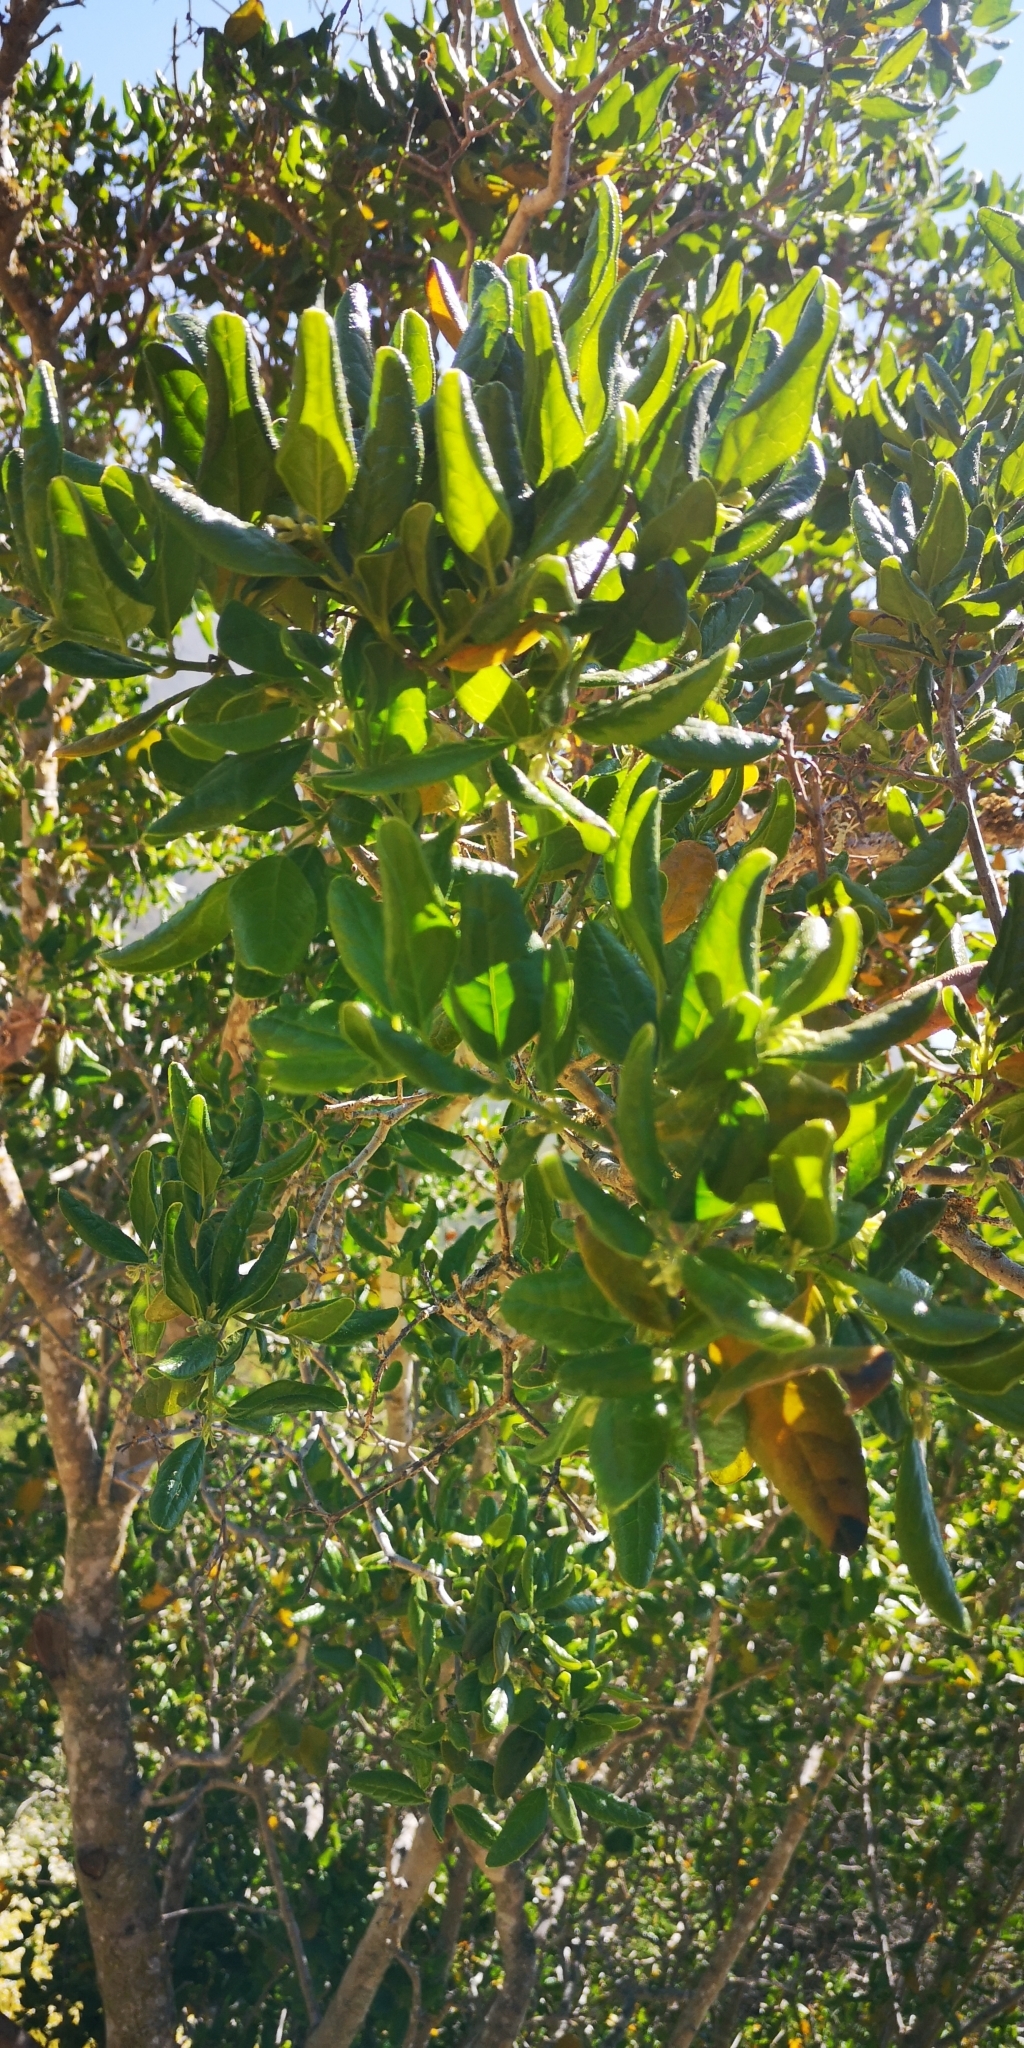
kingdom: Plantae
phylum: Tracheophyta
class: Magnoliopsida
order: Laurales
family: Monimiaceae
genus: Peumus
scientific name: Peumus boldus
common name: Boldo
